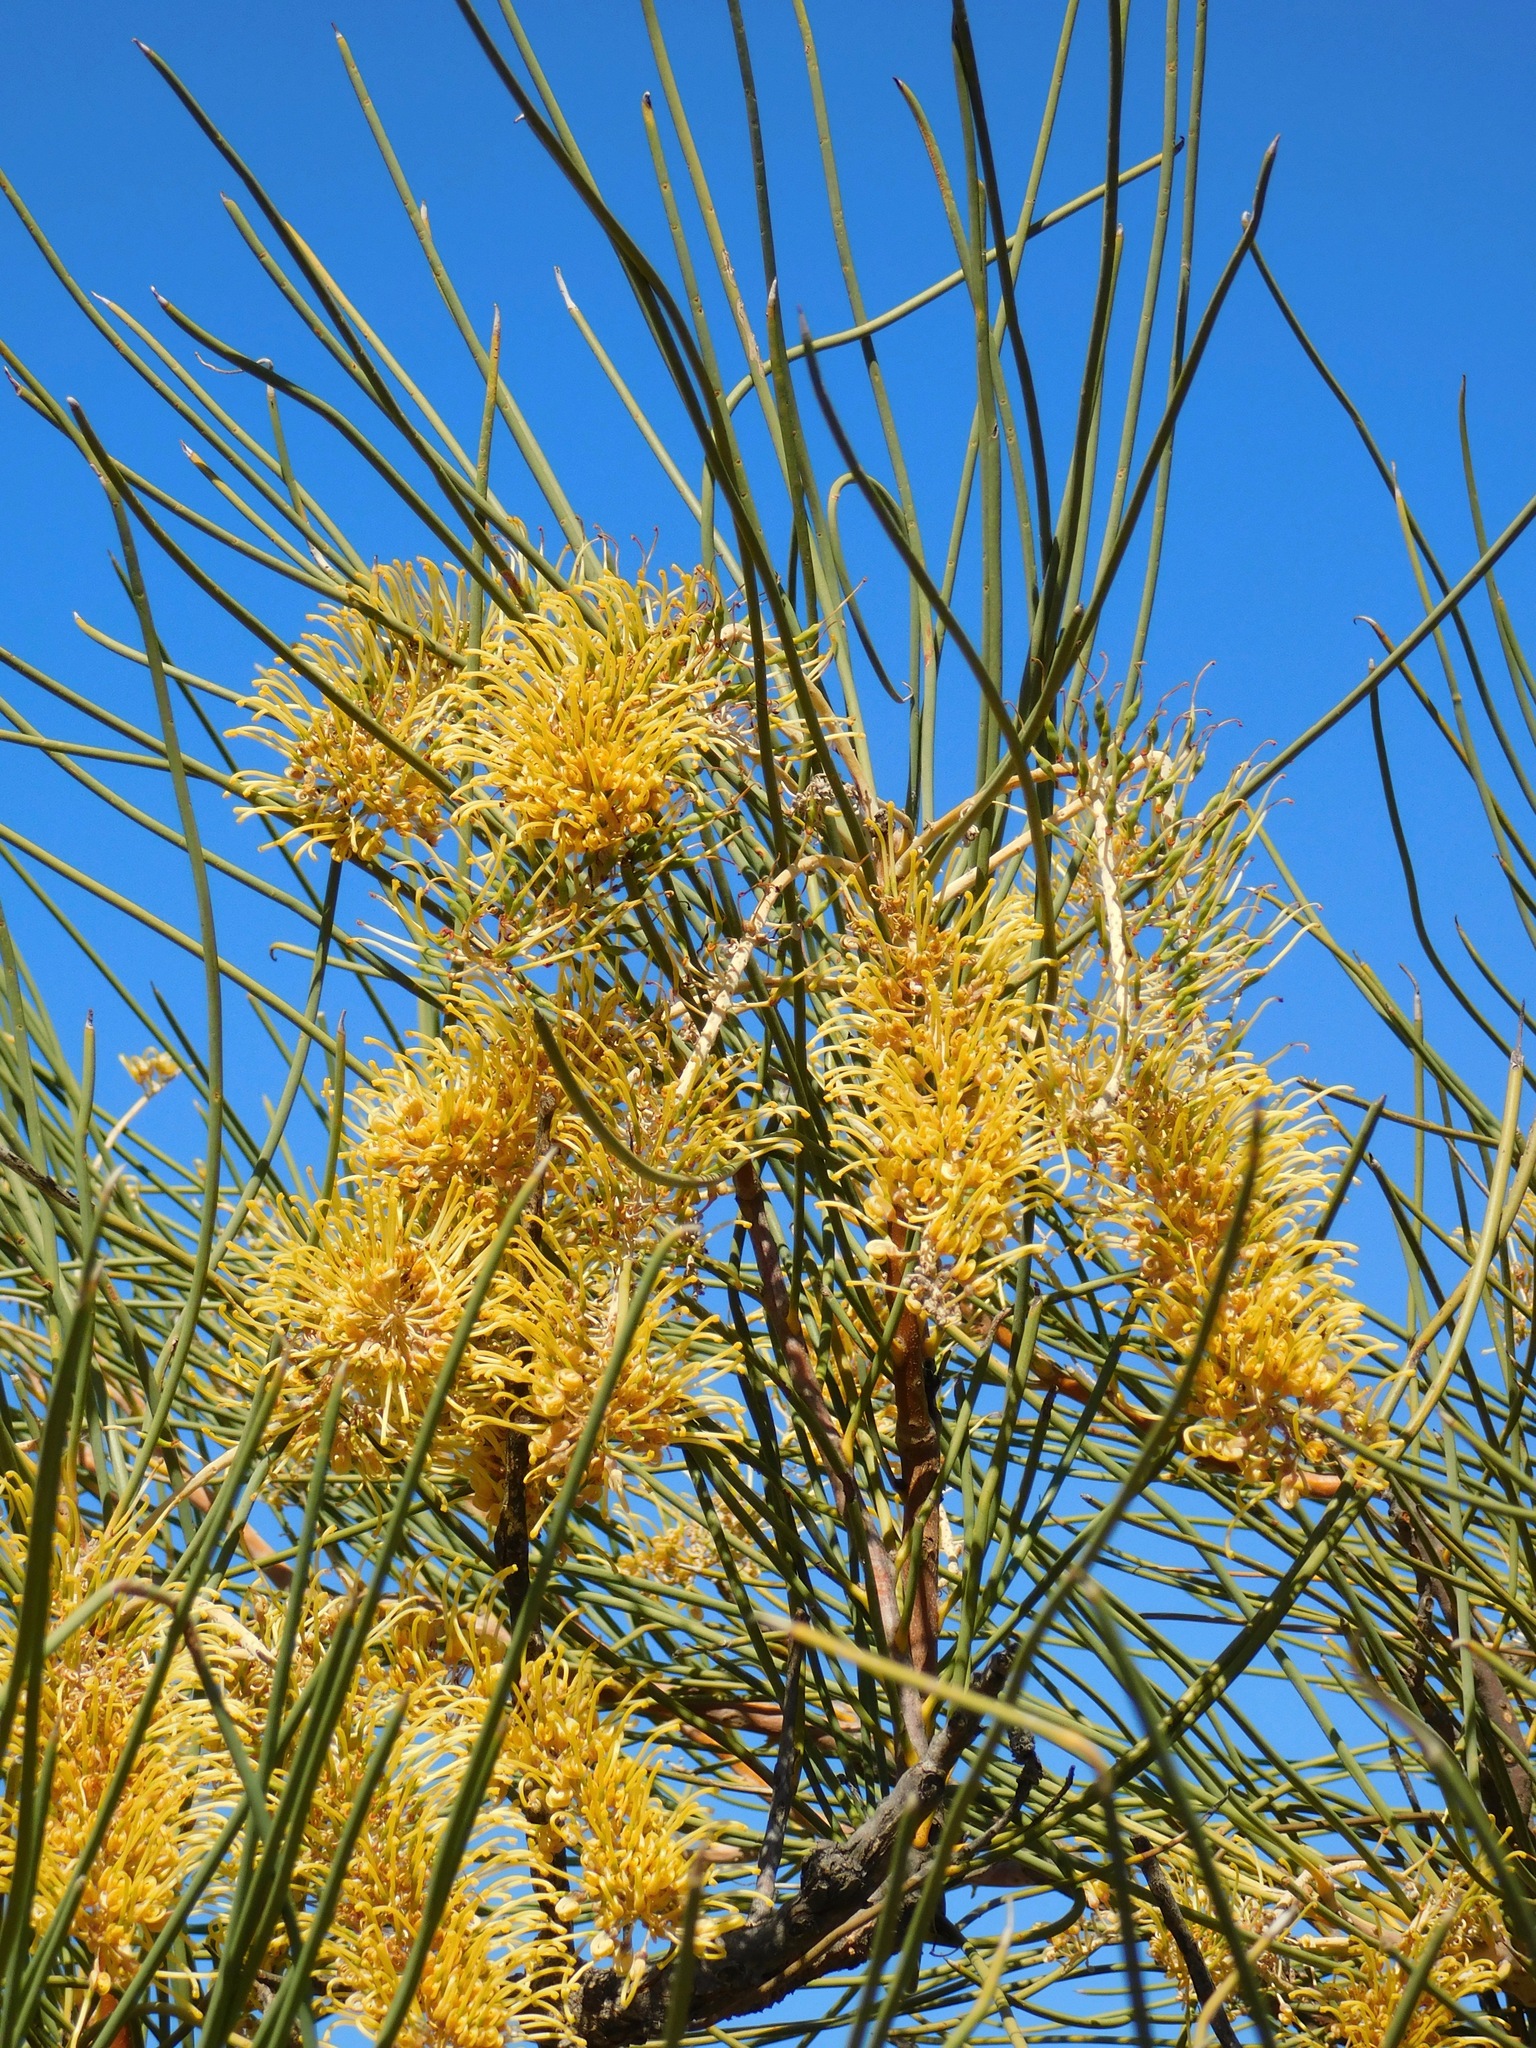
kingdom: Plantae
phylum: Tracheophyta
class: Magnoliopsida
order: Proteales
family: Proteaceae
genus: Hakea
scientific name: Hakea lorea
